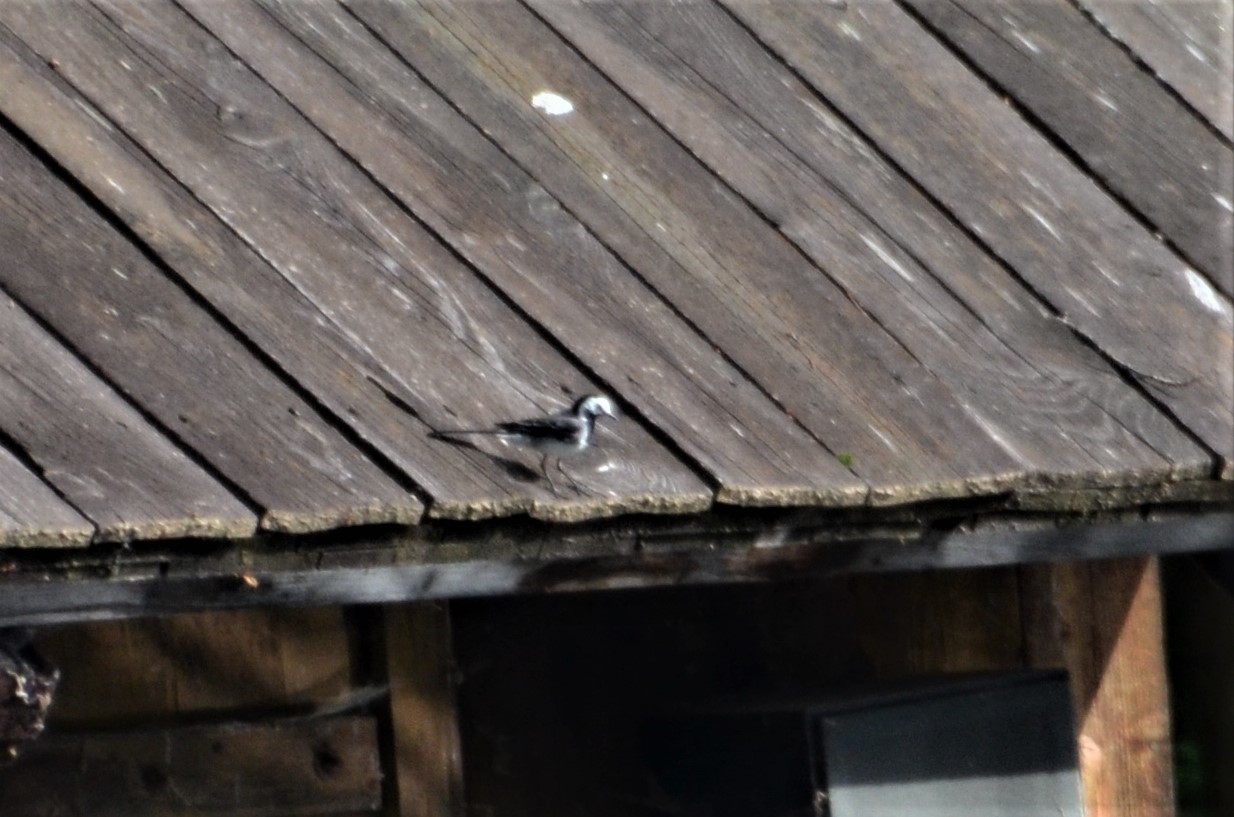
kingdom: Animalia
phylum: Chordata
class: Aves
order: Passeriformes
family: Motacillidae
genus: Motacilla
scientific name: Motacilla alba
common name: White wagtail
